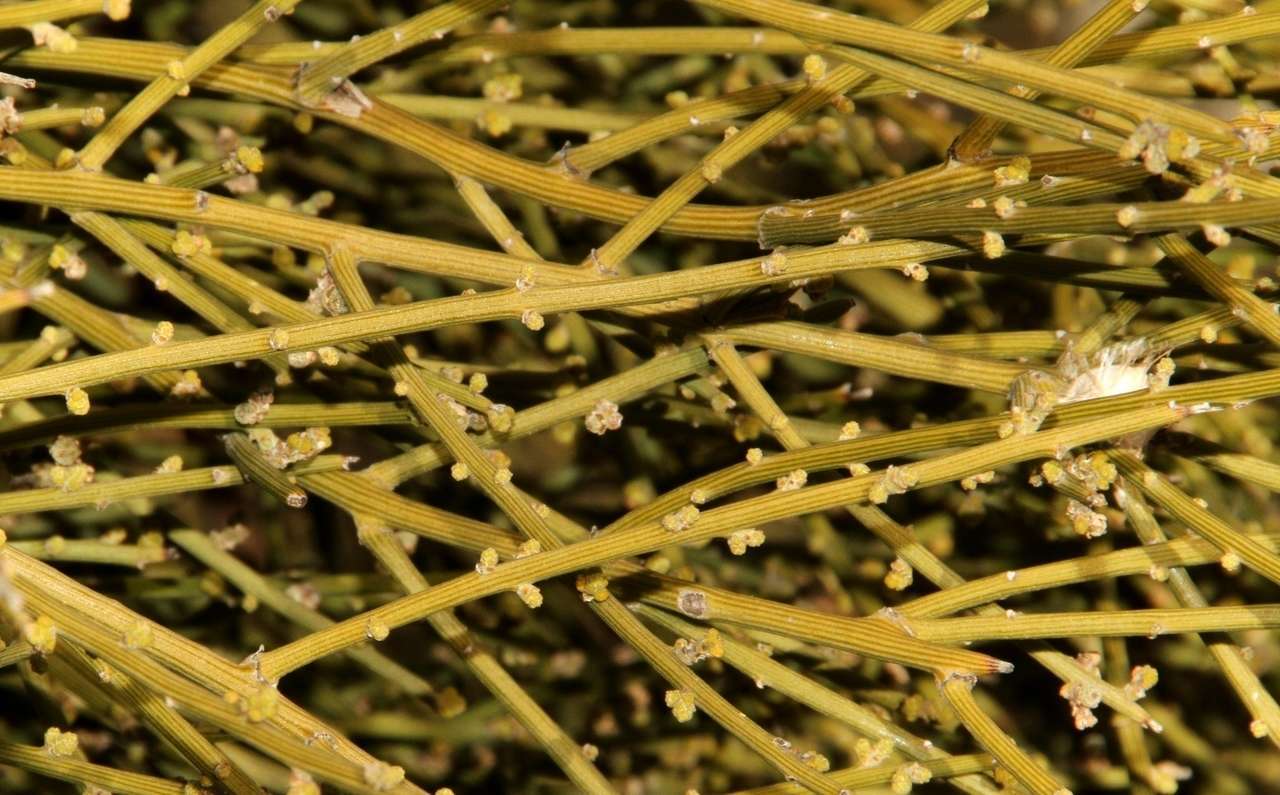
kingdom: Plantae
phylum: Tracheophyta
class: Magnoliopsida
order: Santalales
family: Santalaceae
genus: Exocarpos
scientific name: Exocarpos aphyllus
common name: Leafless ballart
